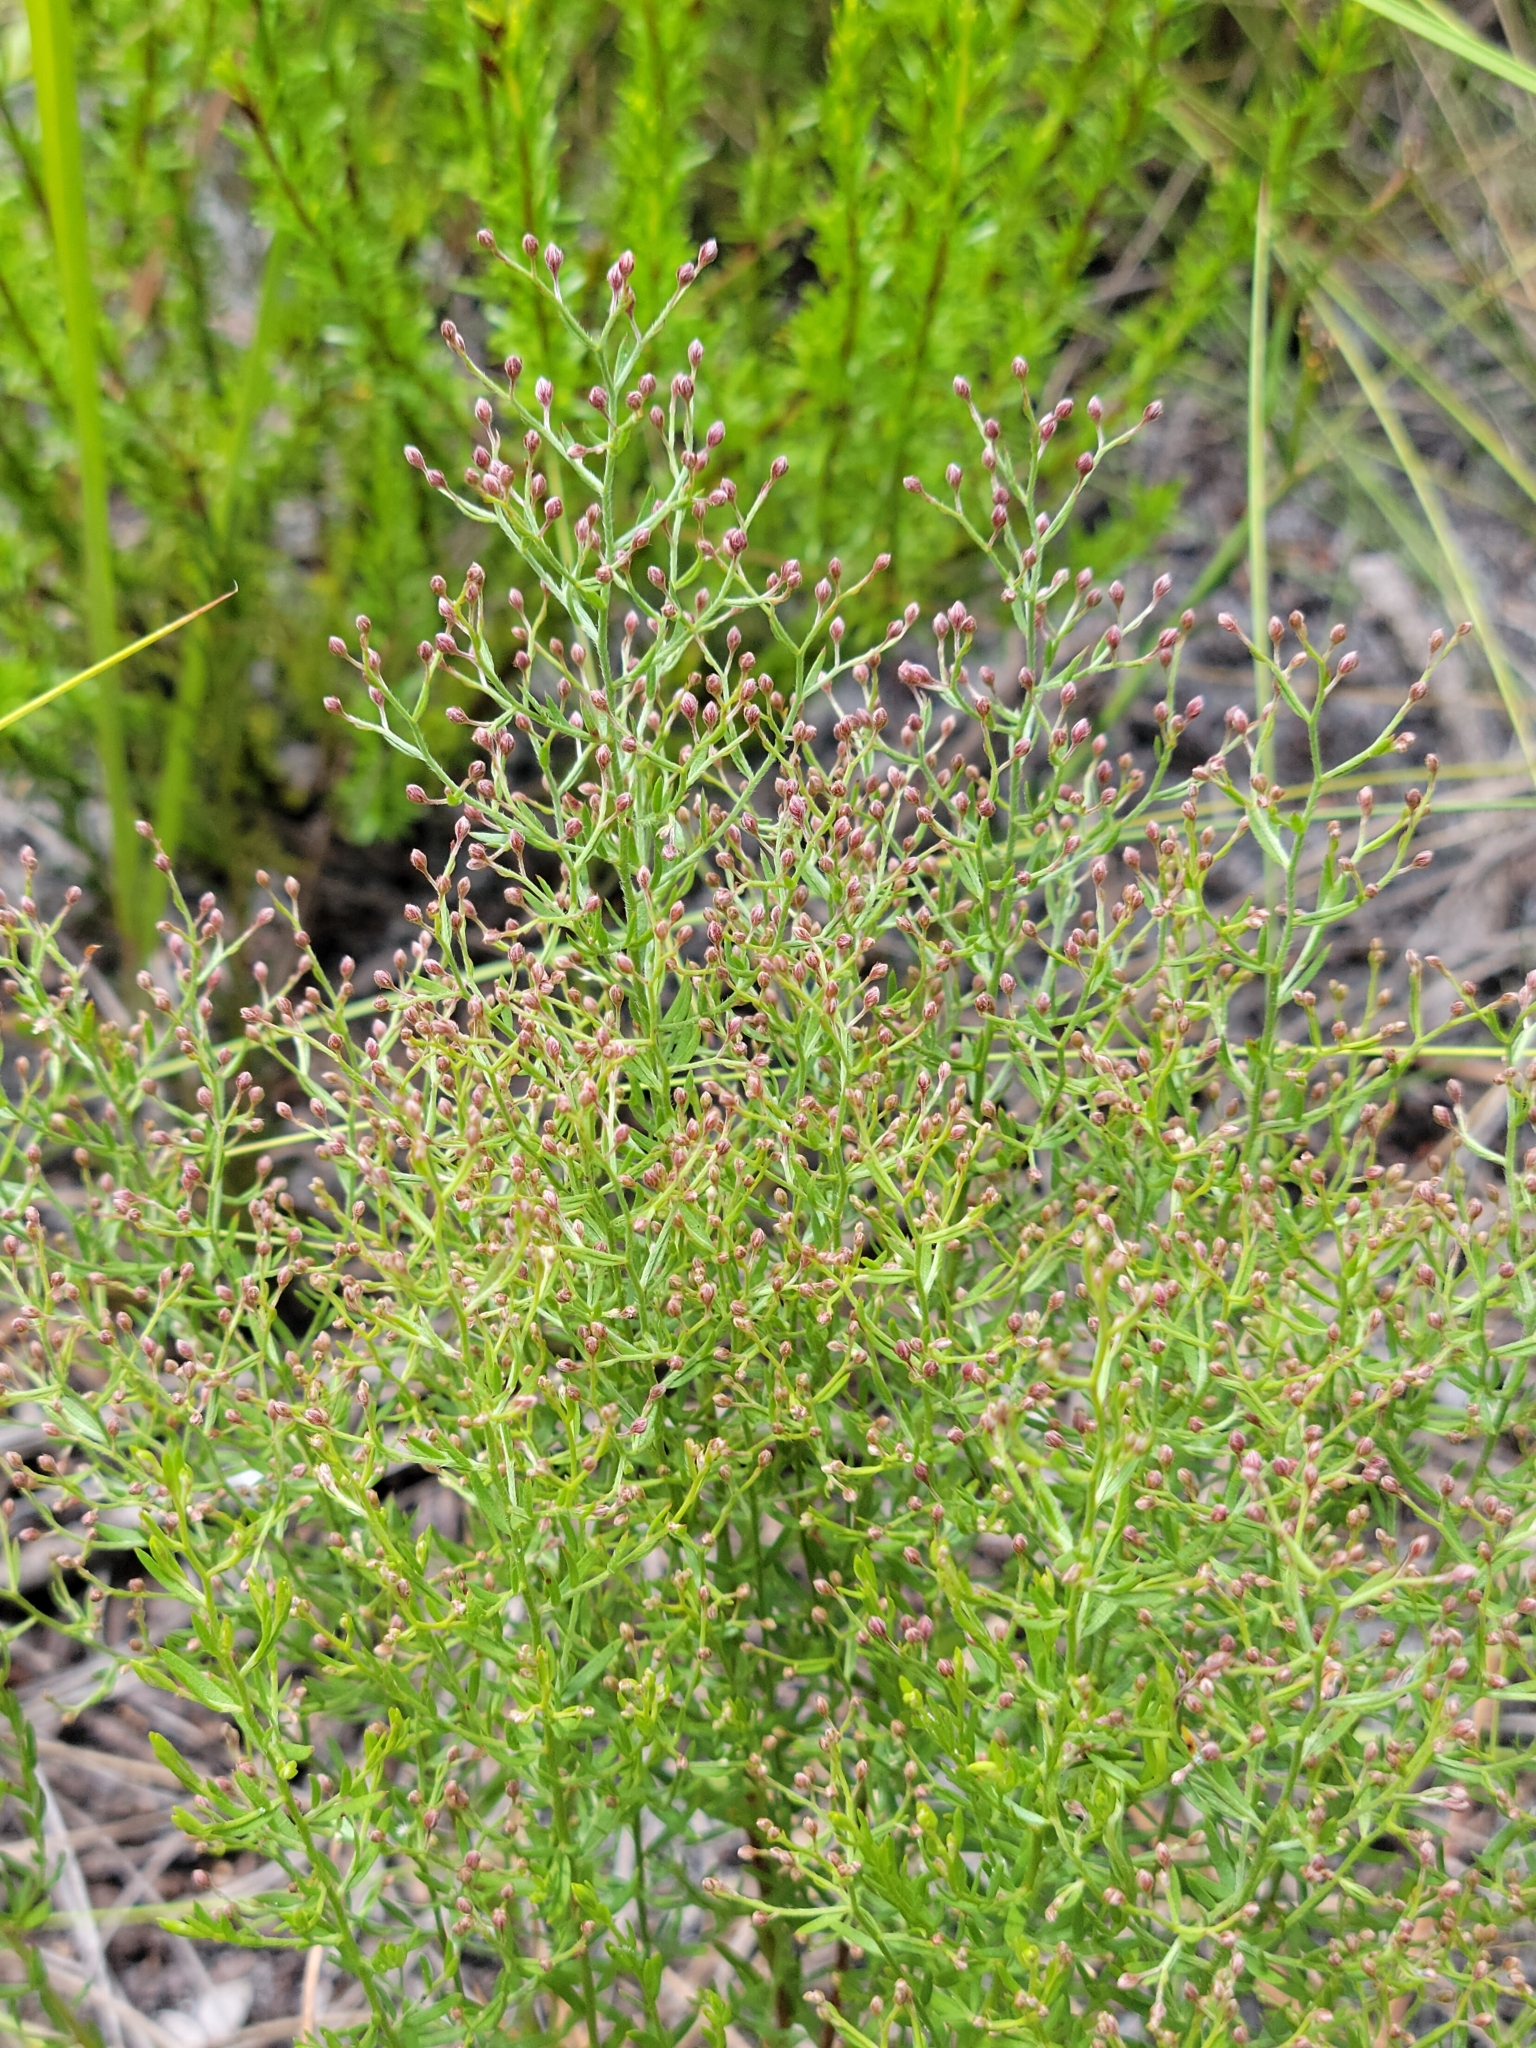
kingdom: Plantae
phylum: Tracheophyta
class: Magnoliopsida
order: Malvales
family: Cistaceae
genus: Lechea
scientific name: Lechea torreyi
